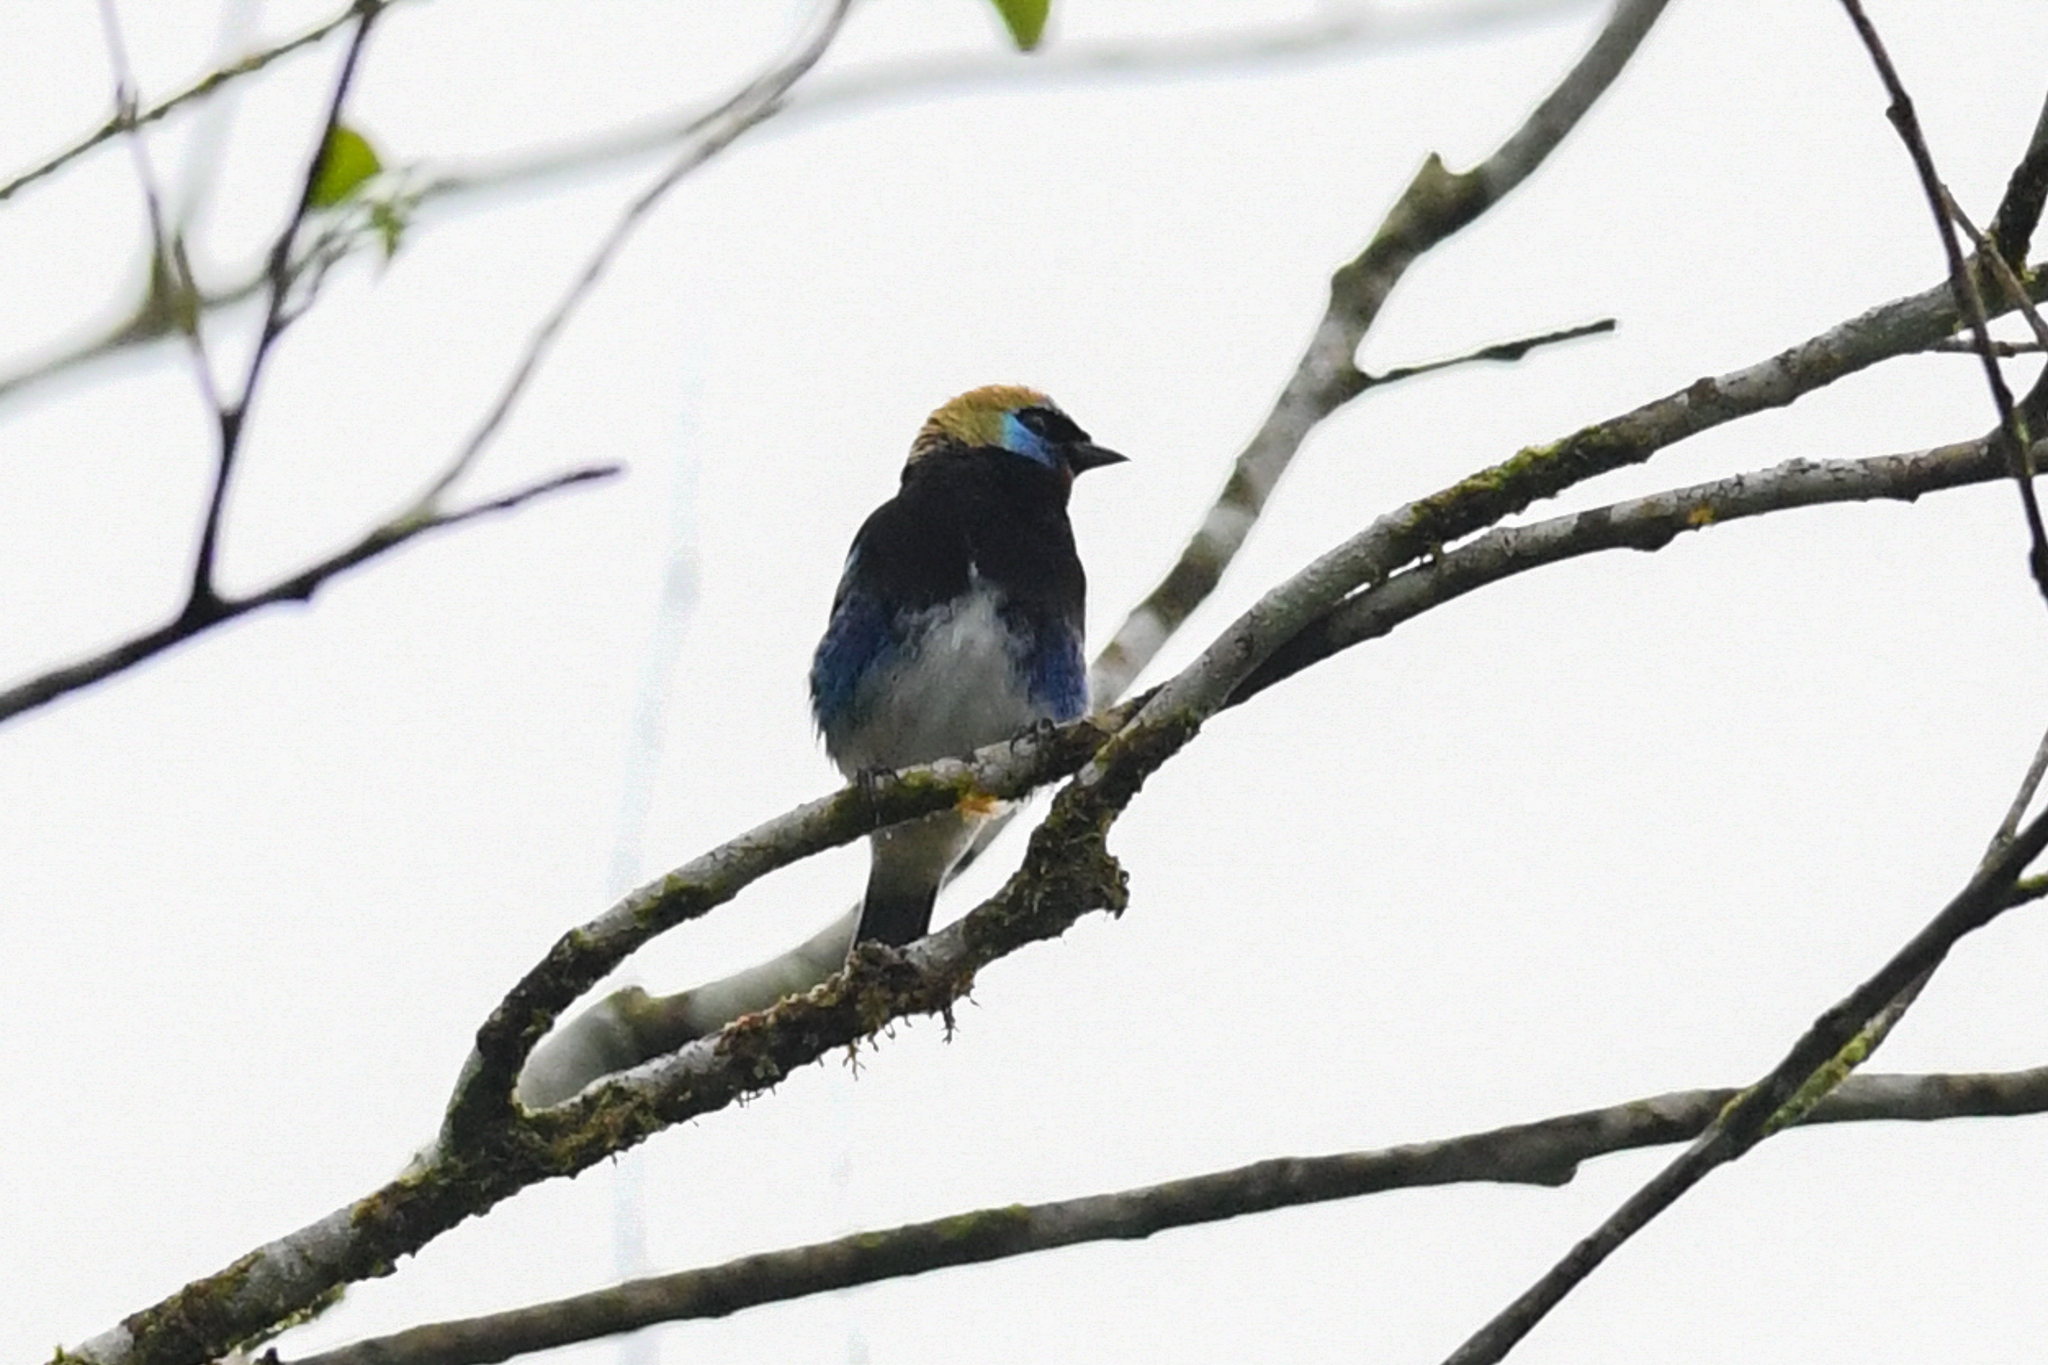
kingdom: Animalia
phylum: Chordata
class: Aves
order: Passeriformes
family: Thraupidae
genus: Stilpnia
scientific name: Stilpnia larvata
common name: Golden-hooded tanager
